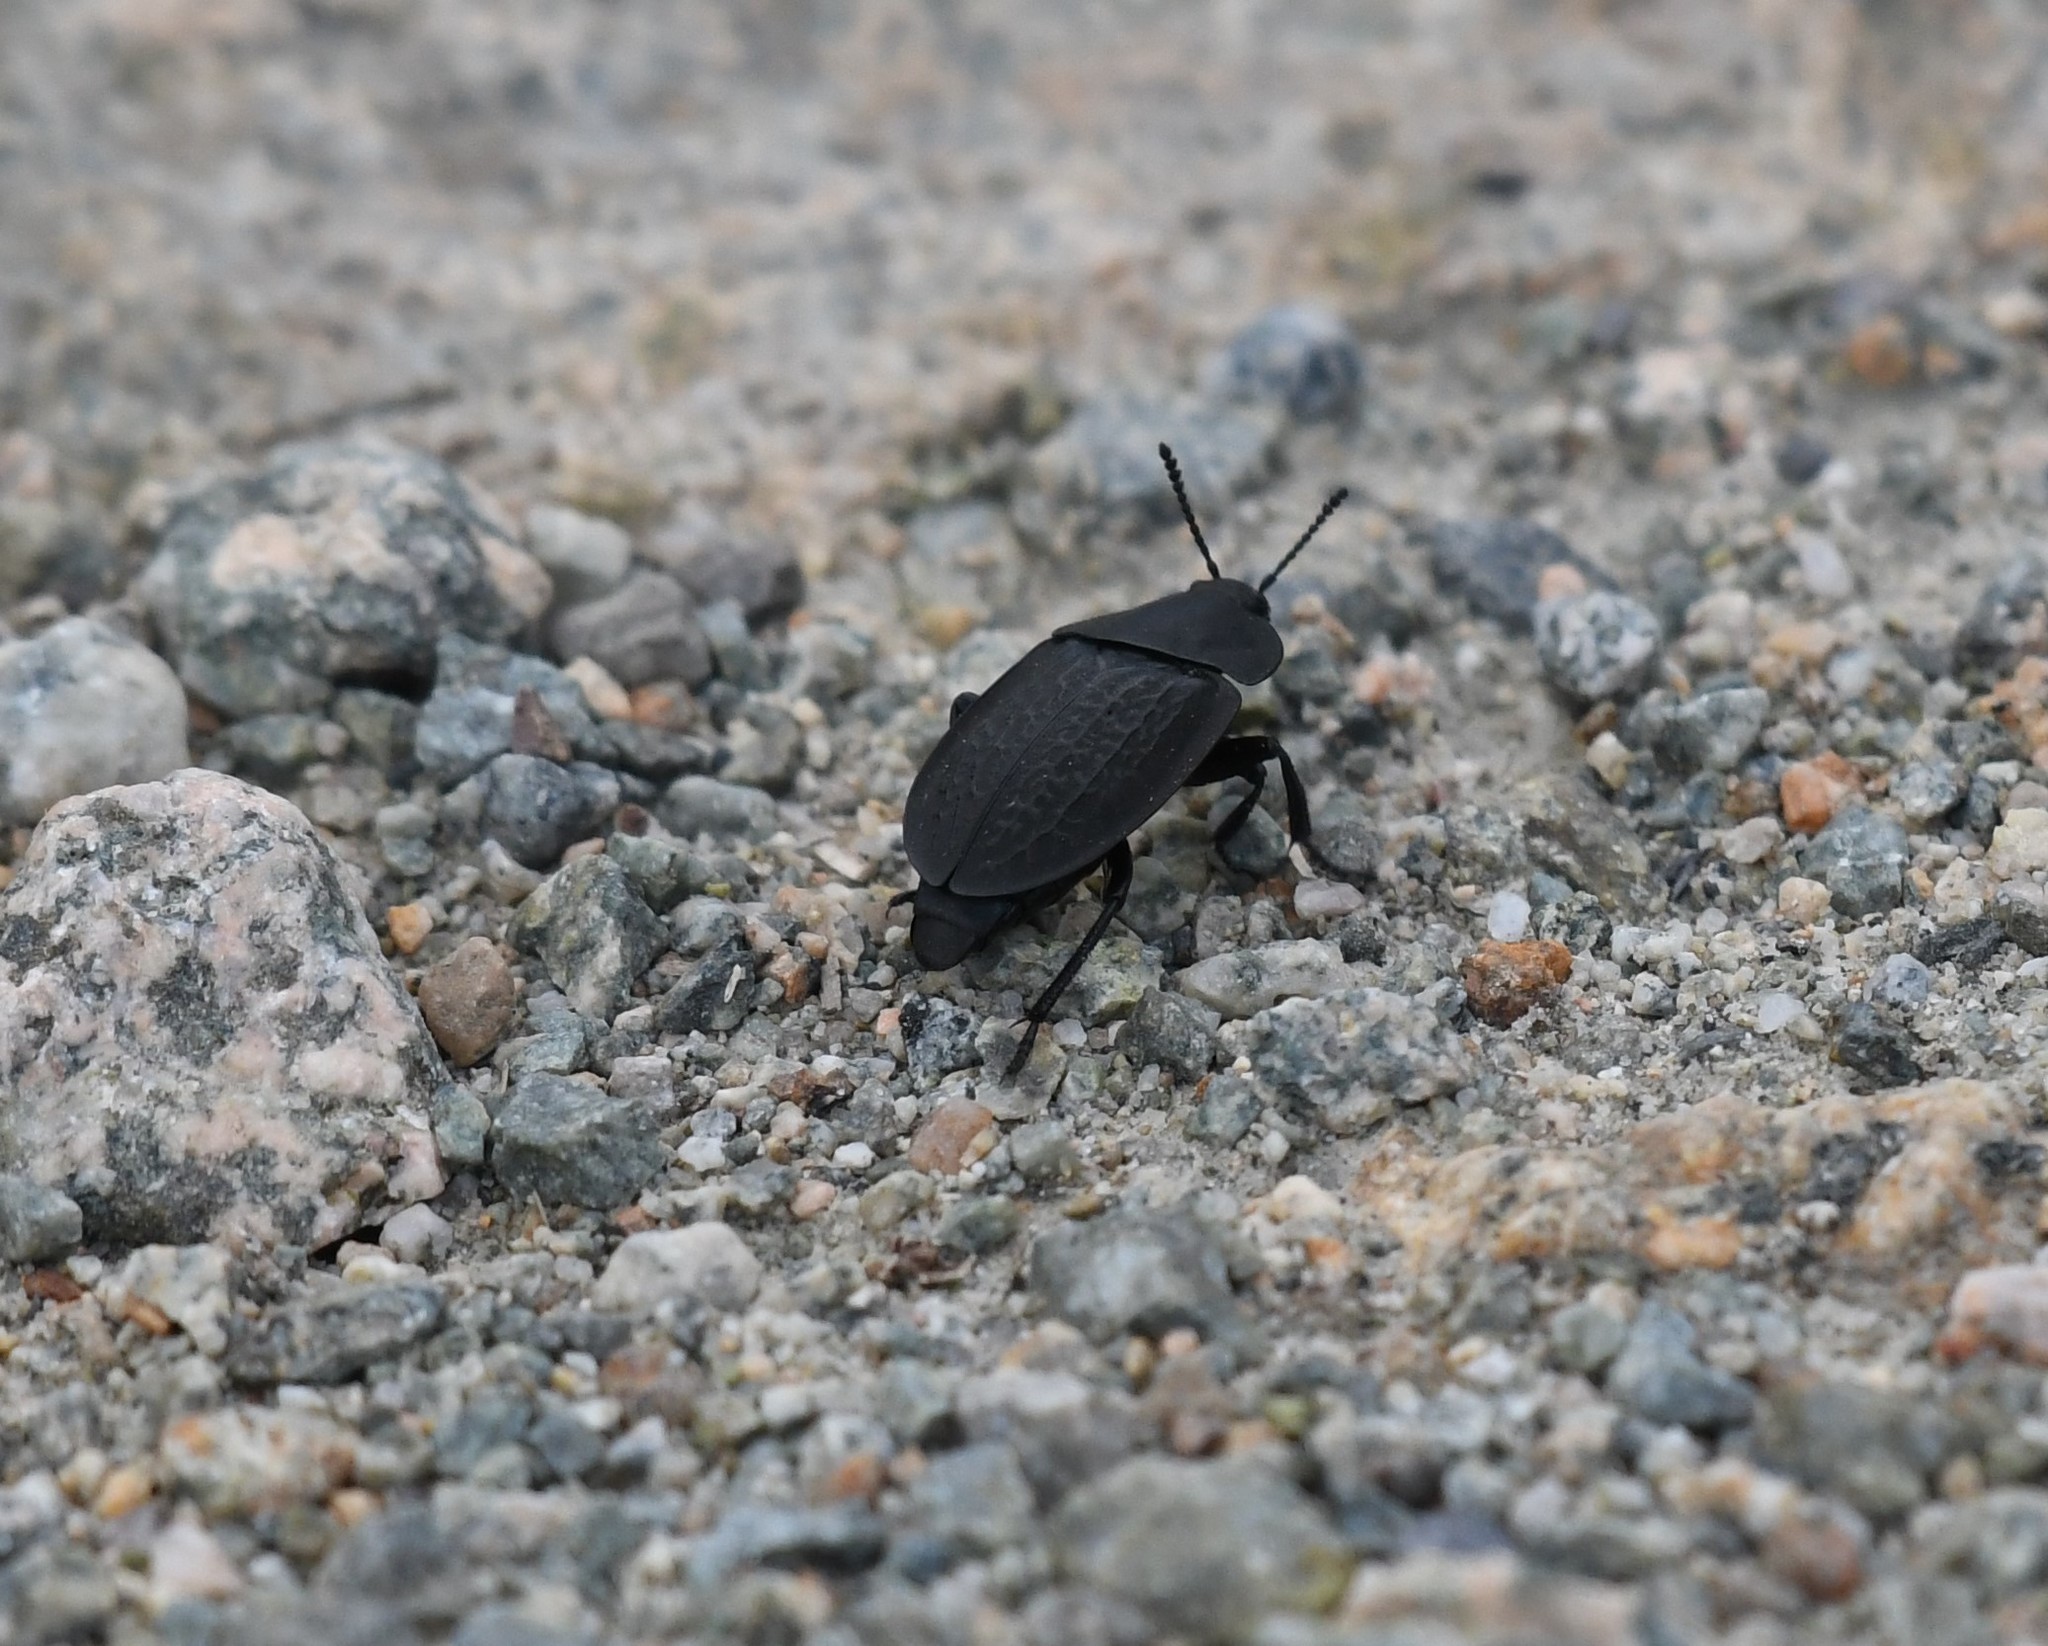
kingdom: Animalia
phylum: Arthropoda
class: Insecta
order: Coleoptera
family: Staphylinidae
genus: Heterosilpha
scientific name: Heterosilpha ramosa
